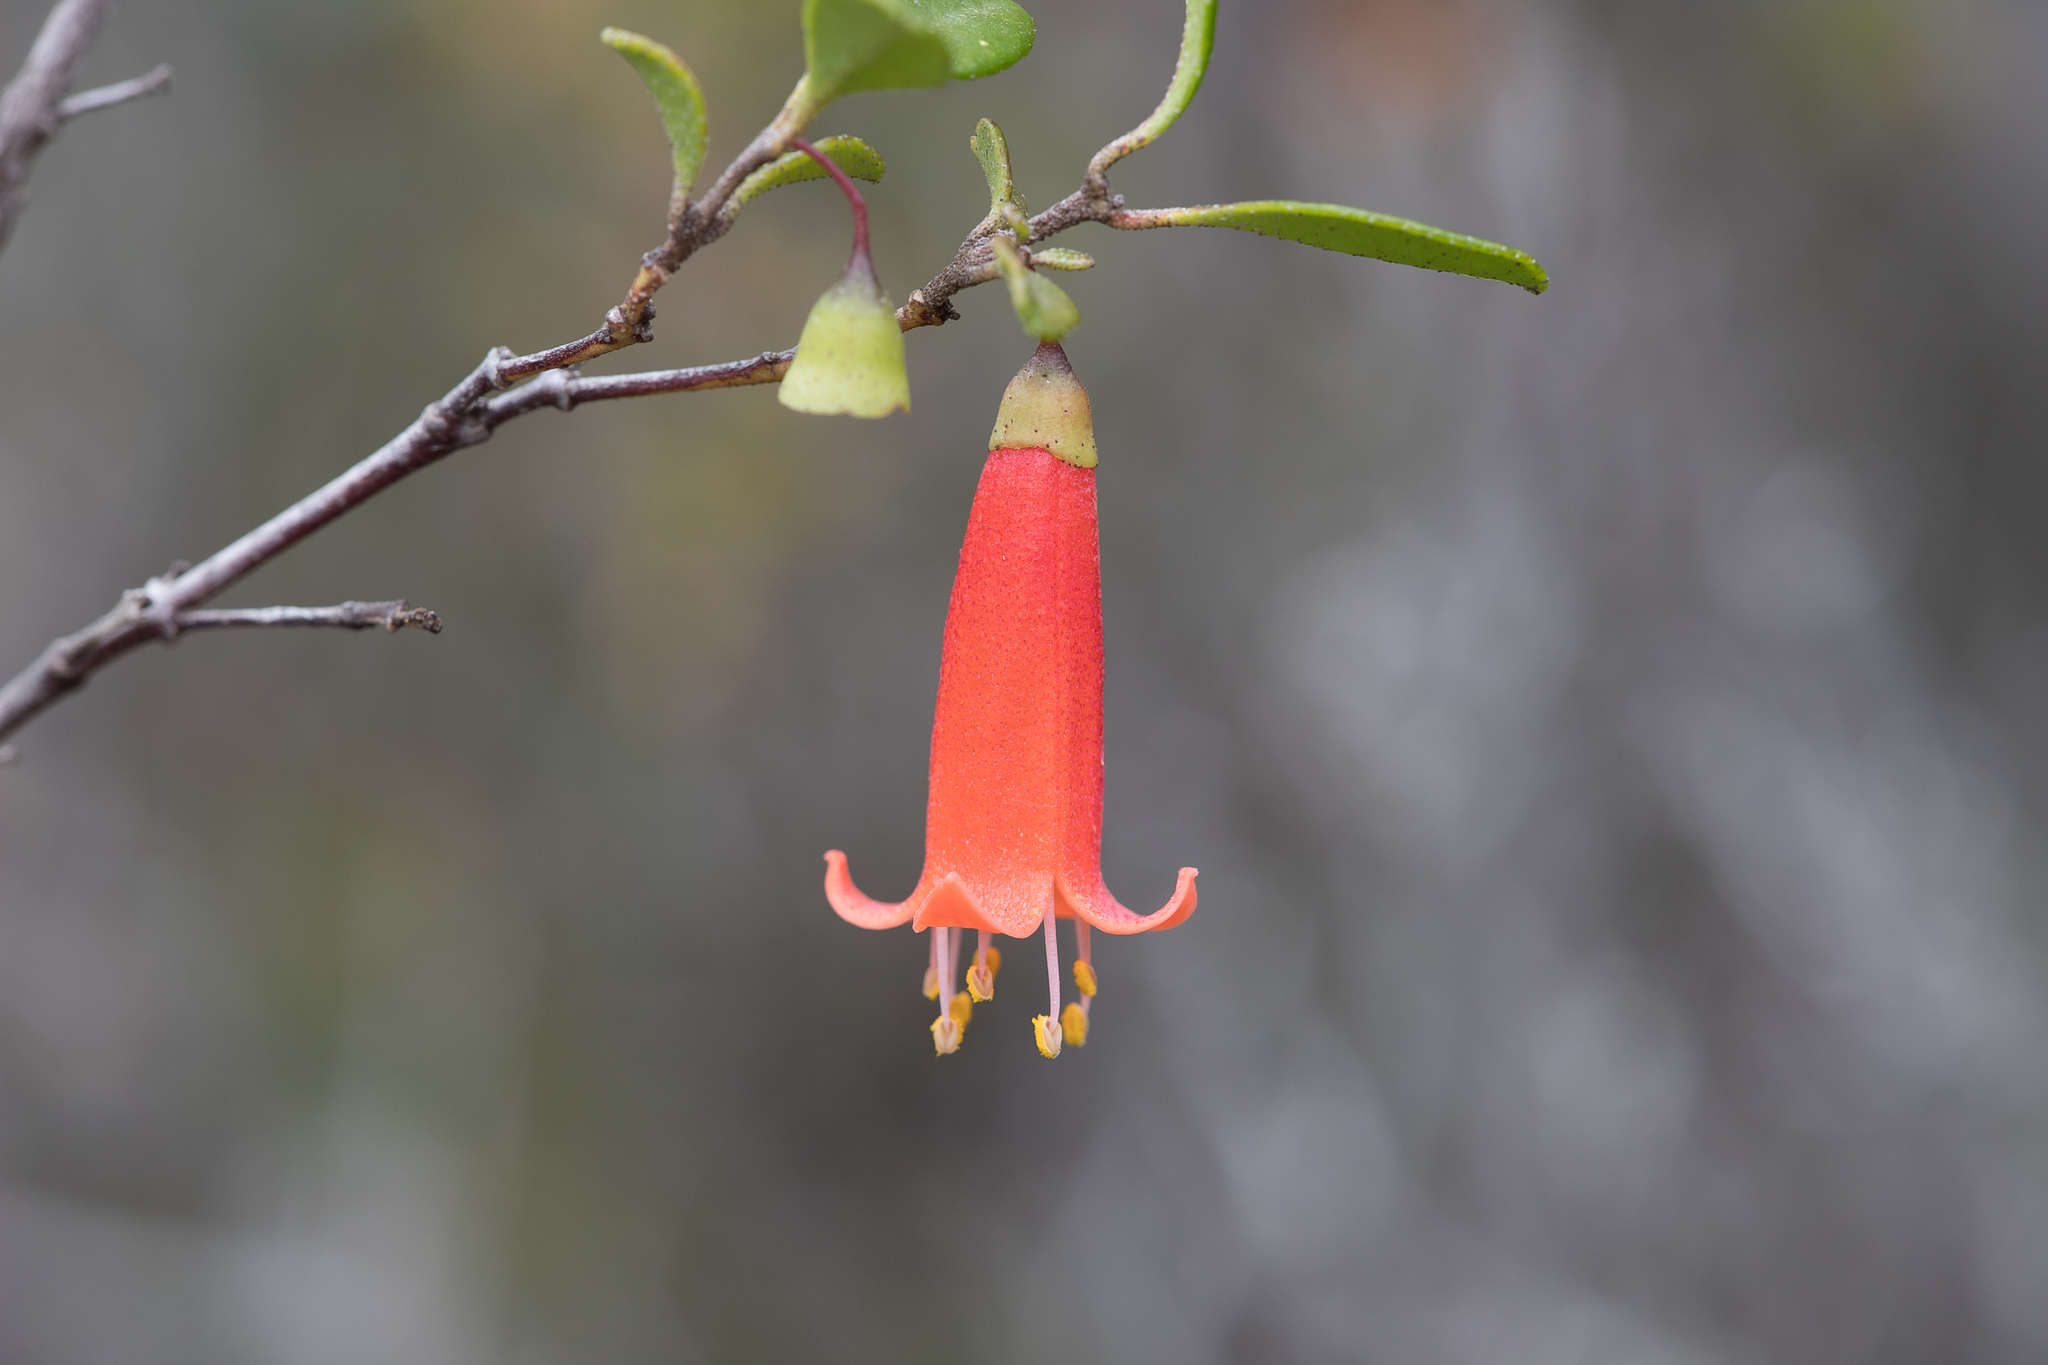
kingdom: Plantae
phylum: Tracheophyta
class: Magnoliopsida
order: Sapindales
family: Rutaceae
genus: Correa
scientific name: Correa pulchella
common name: Salmon correa
